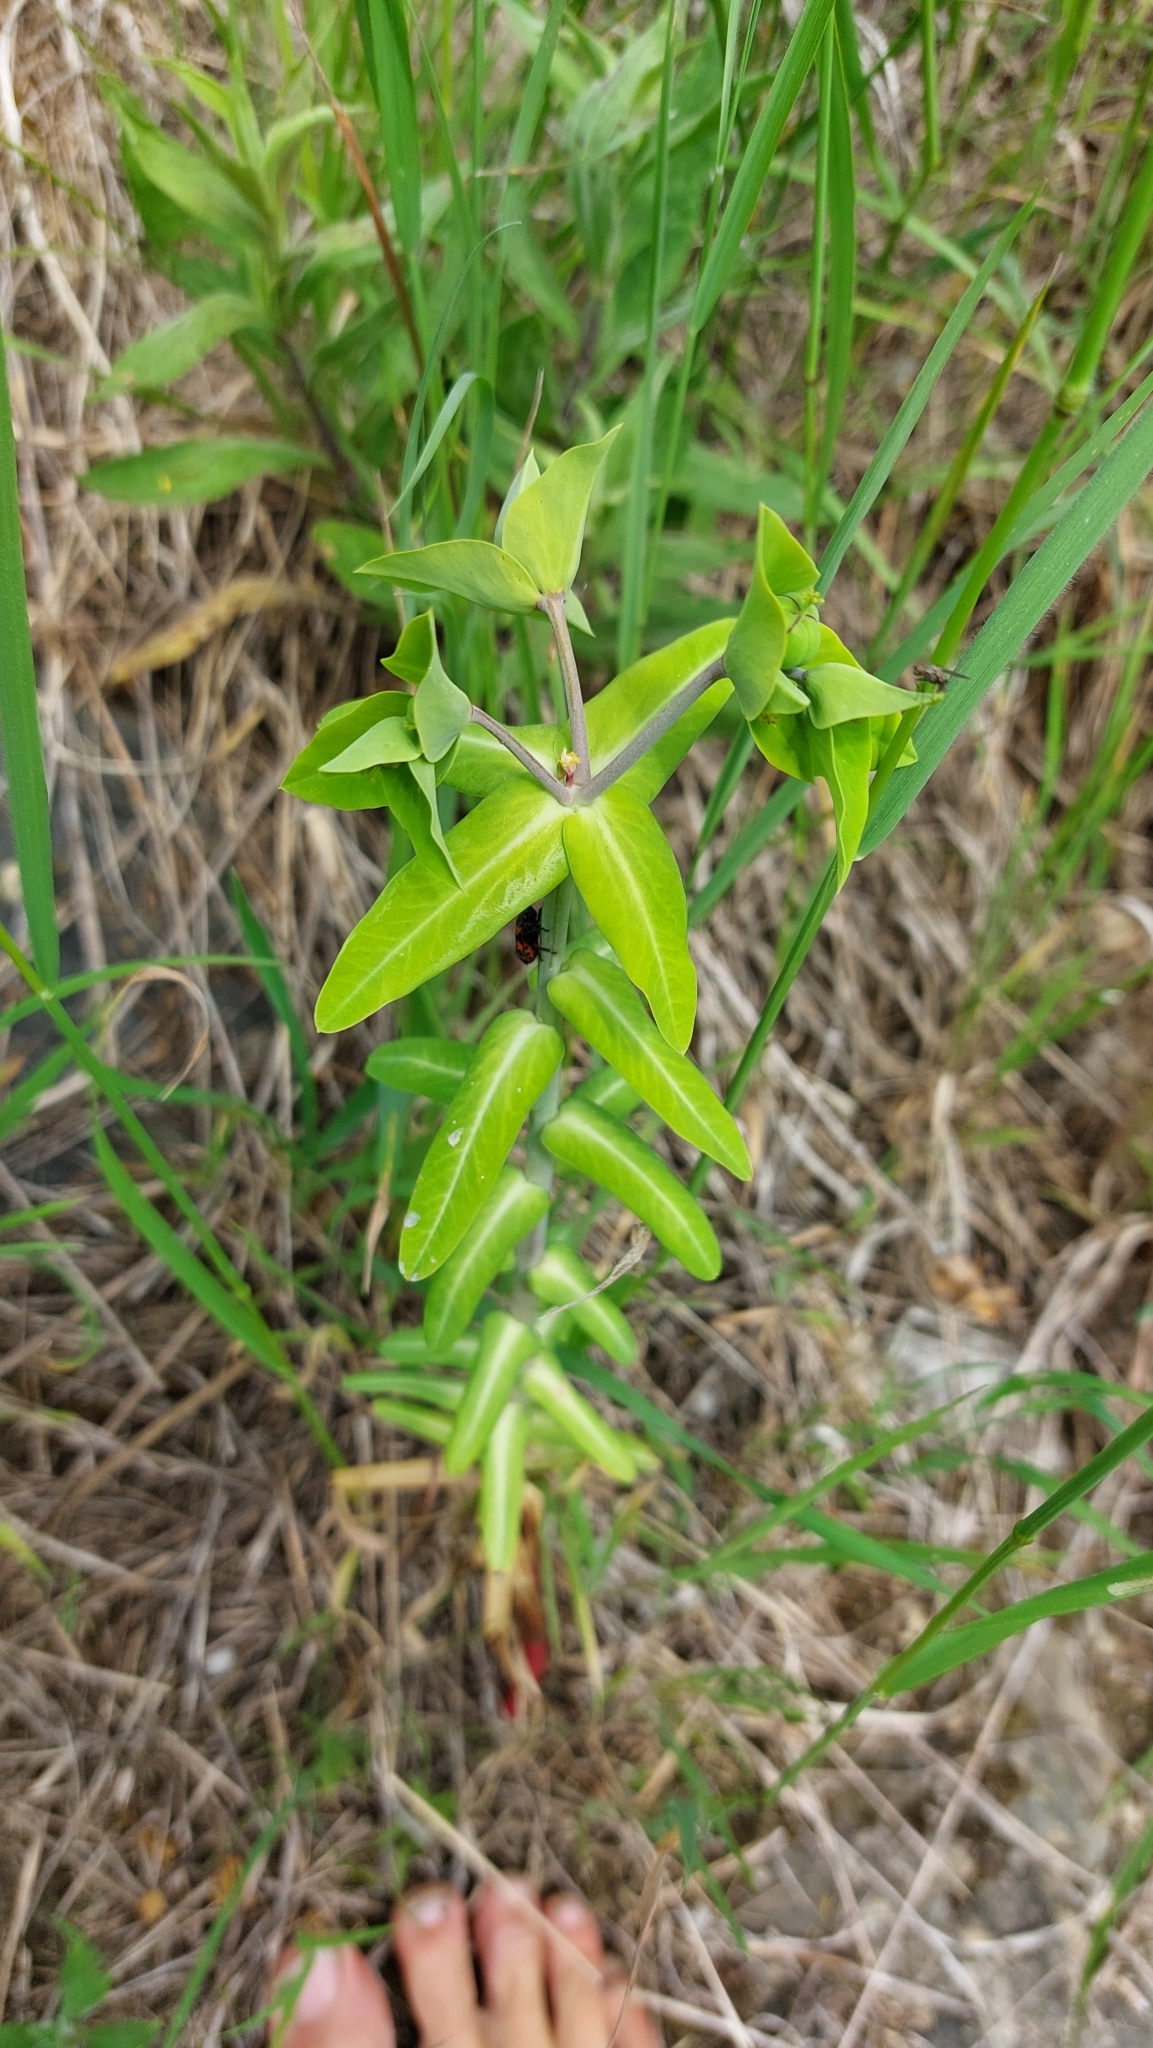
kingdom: Plantae
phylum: Tracheophyta
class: Magnoliopsida
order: Malpighiales
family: Euphorbiaceae
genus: Euphorbia
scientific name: Euphorbia lathyris
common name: Caper spurge
